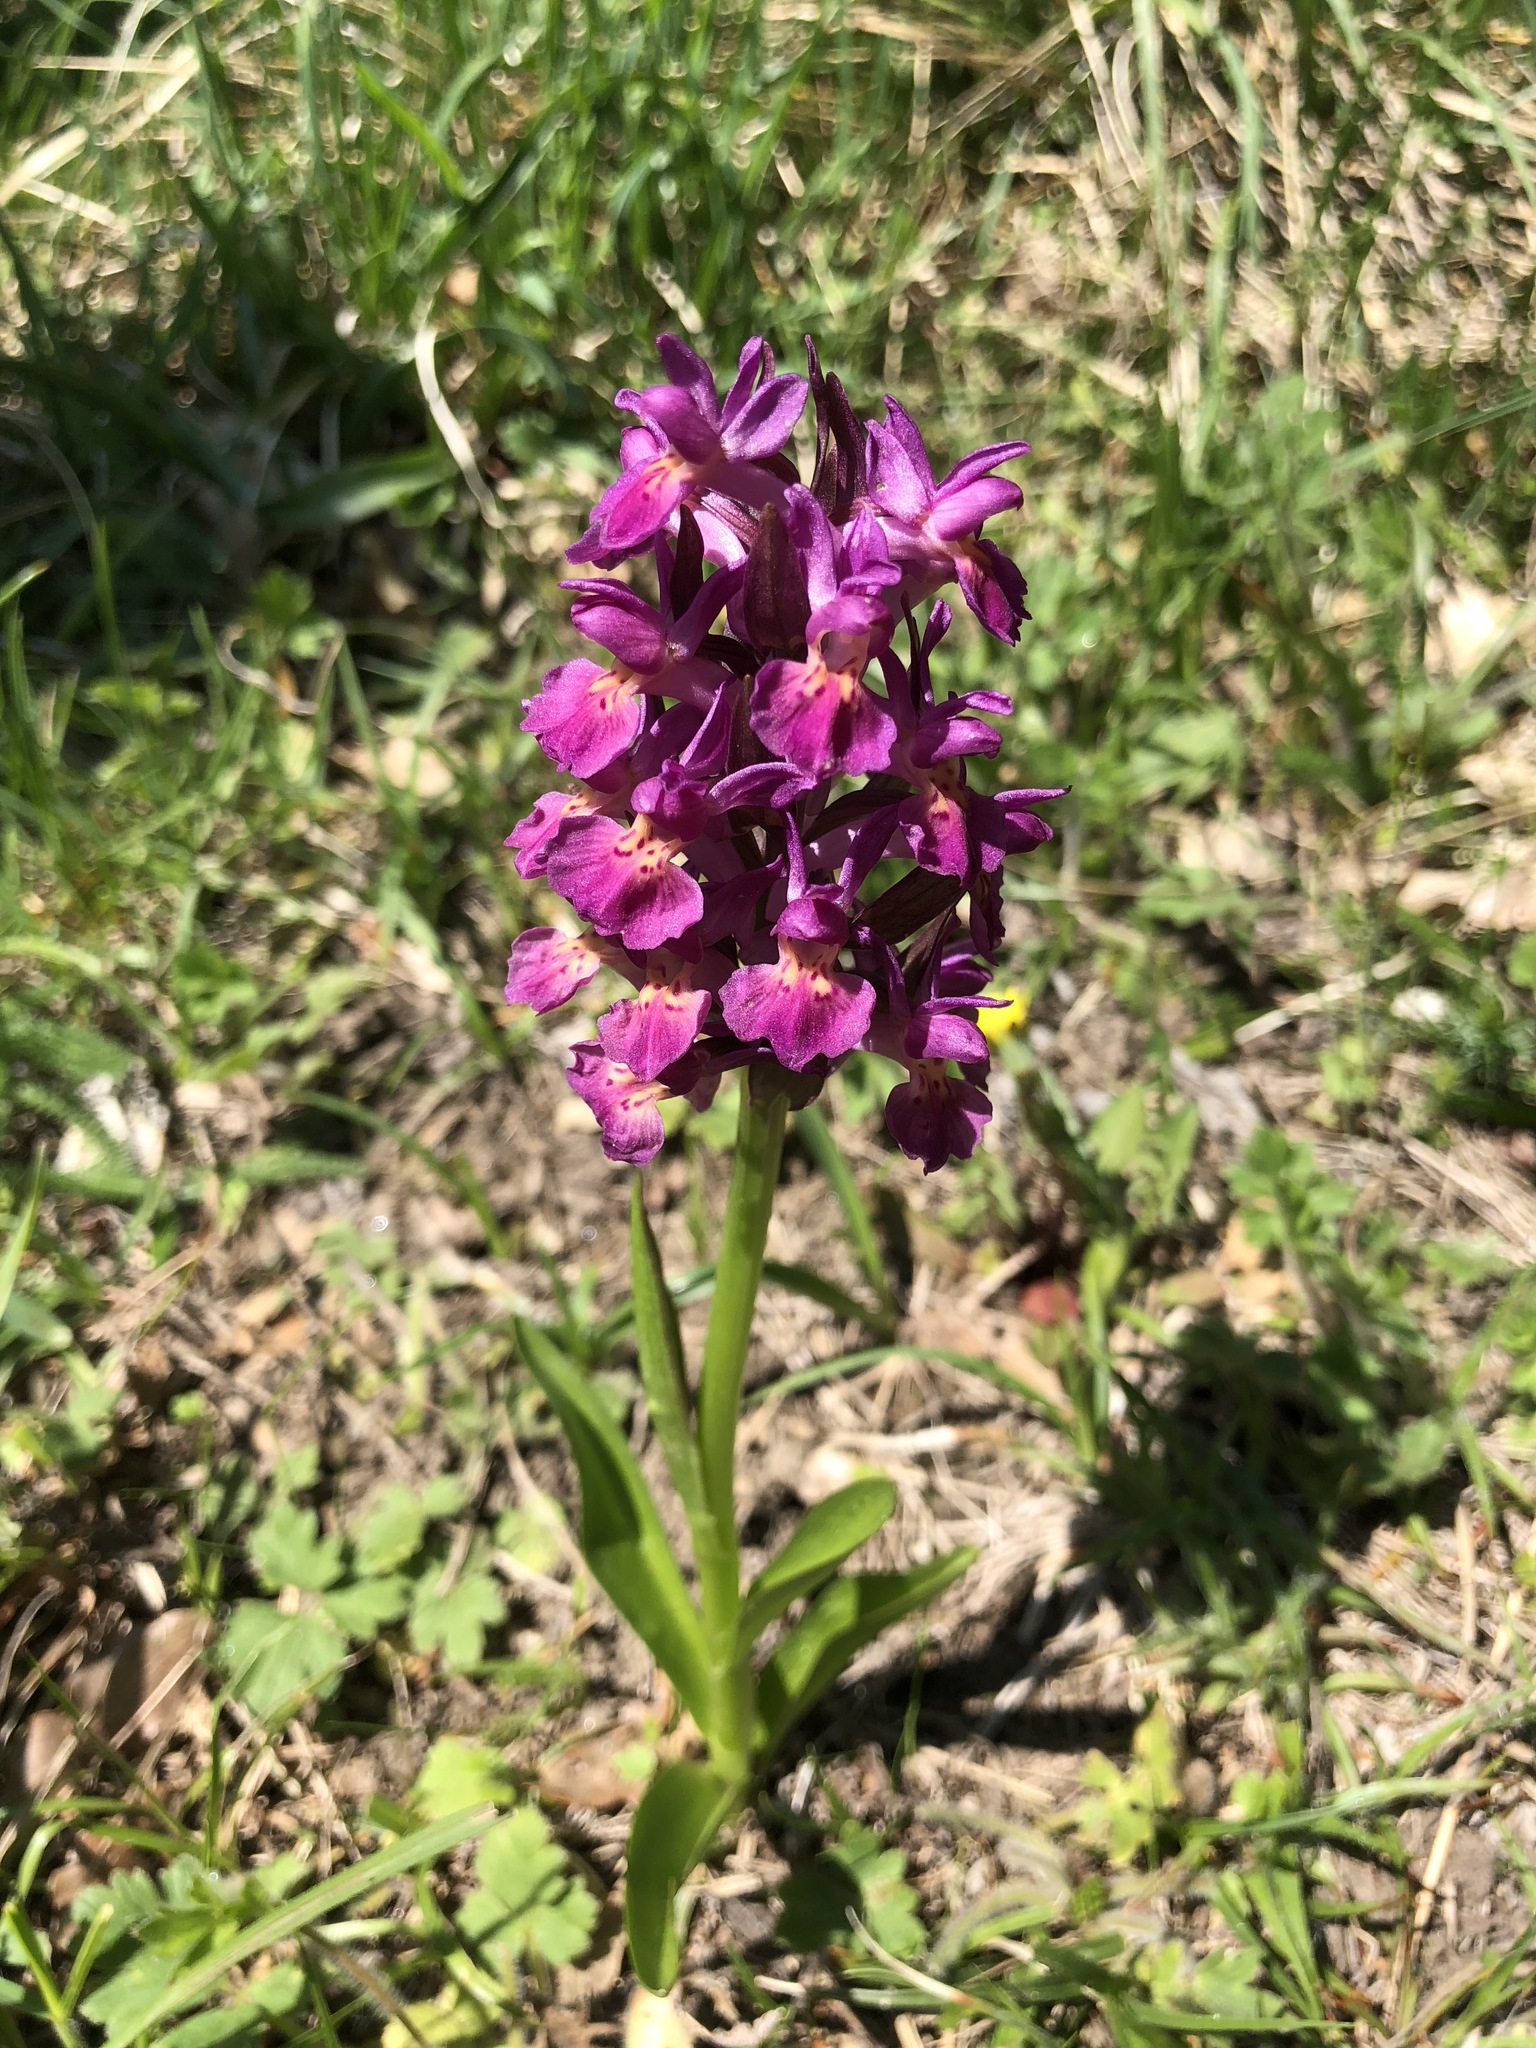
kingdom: Plantae
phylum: Tracheophyta
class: Liliopsida
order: Asparagales
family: Orchidaceae
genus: Dactylorhiza
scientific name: Dactylorhiza sambucina
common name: Elder-flowered orchid
